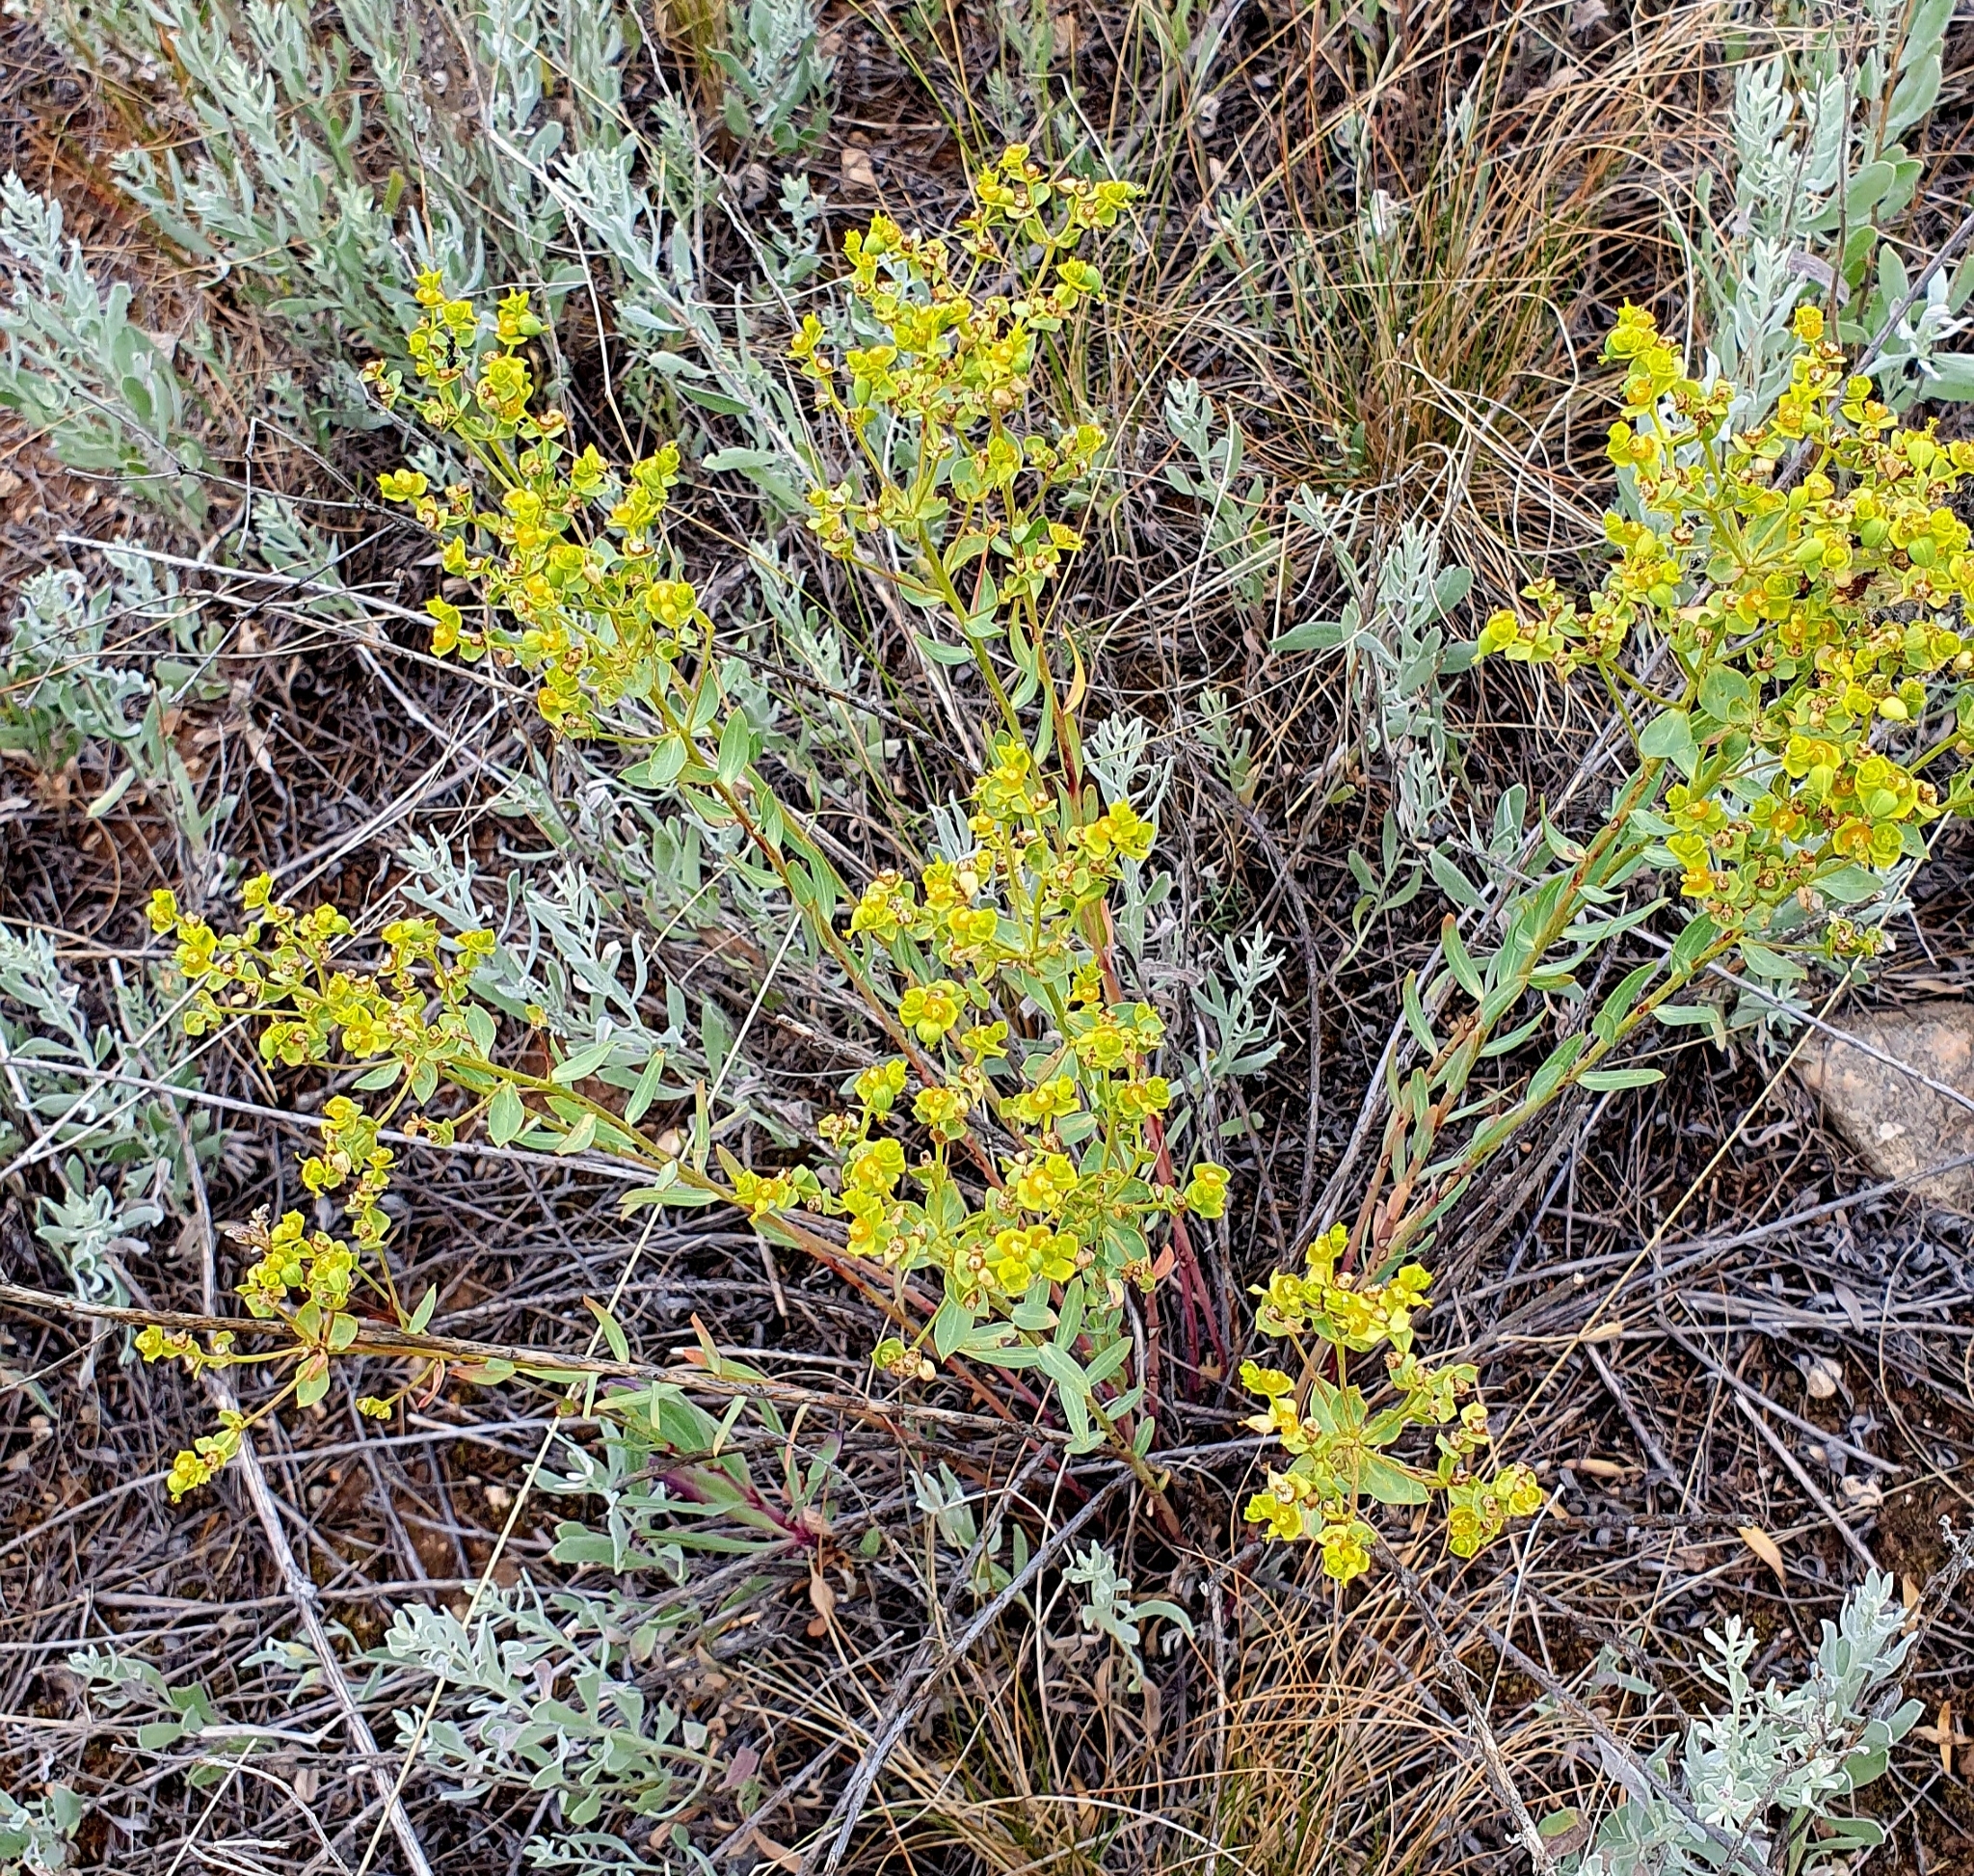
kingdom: Plantae
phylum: Tracheophyta
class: Magnoliopsida
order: Malpighiales
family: Euphorbiaceae
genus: Euphorbia
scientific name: Euphorbia seguieriana
